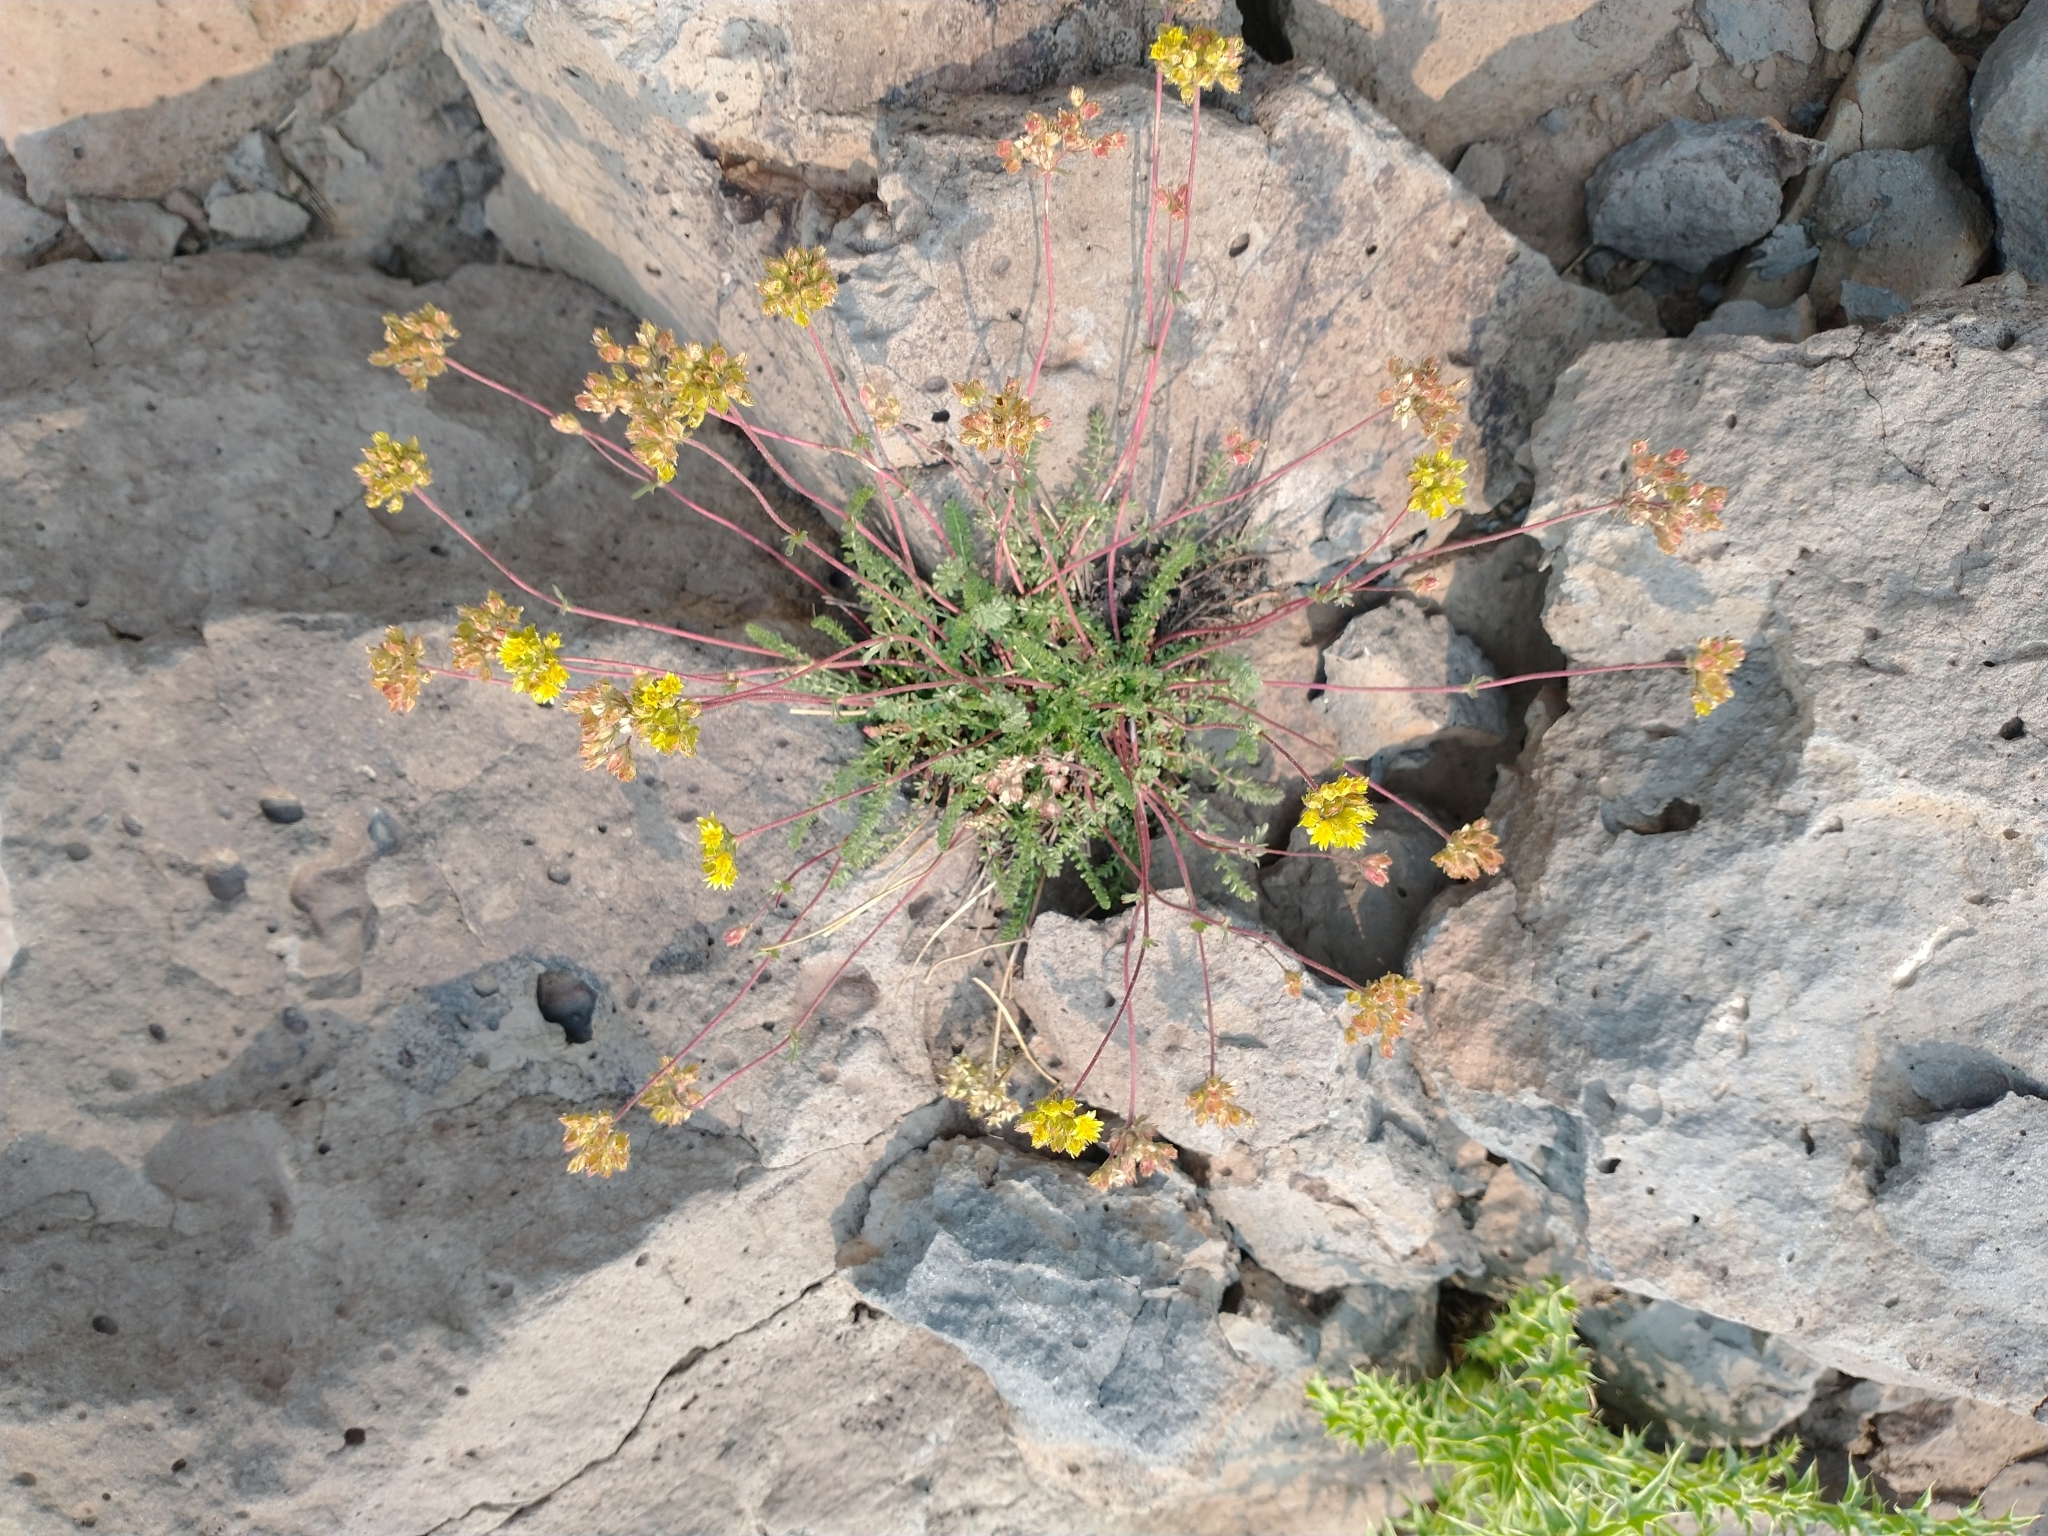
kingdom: Plantae
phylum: Tracheophyta
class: Magnoliopsida
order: Rosales
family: Rosaceae
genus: Potentilla
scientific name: Potentilla gordonii
